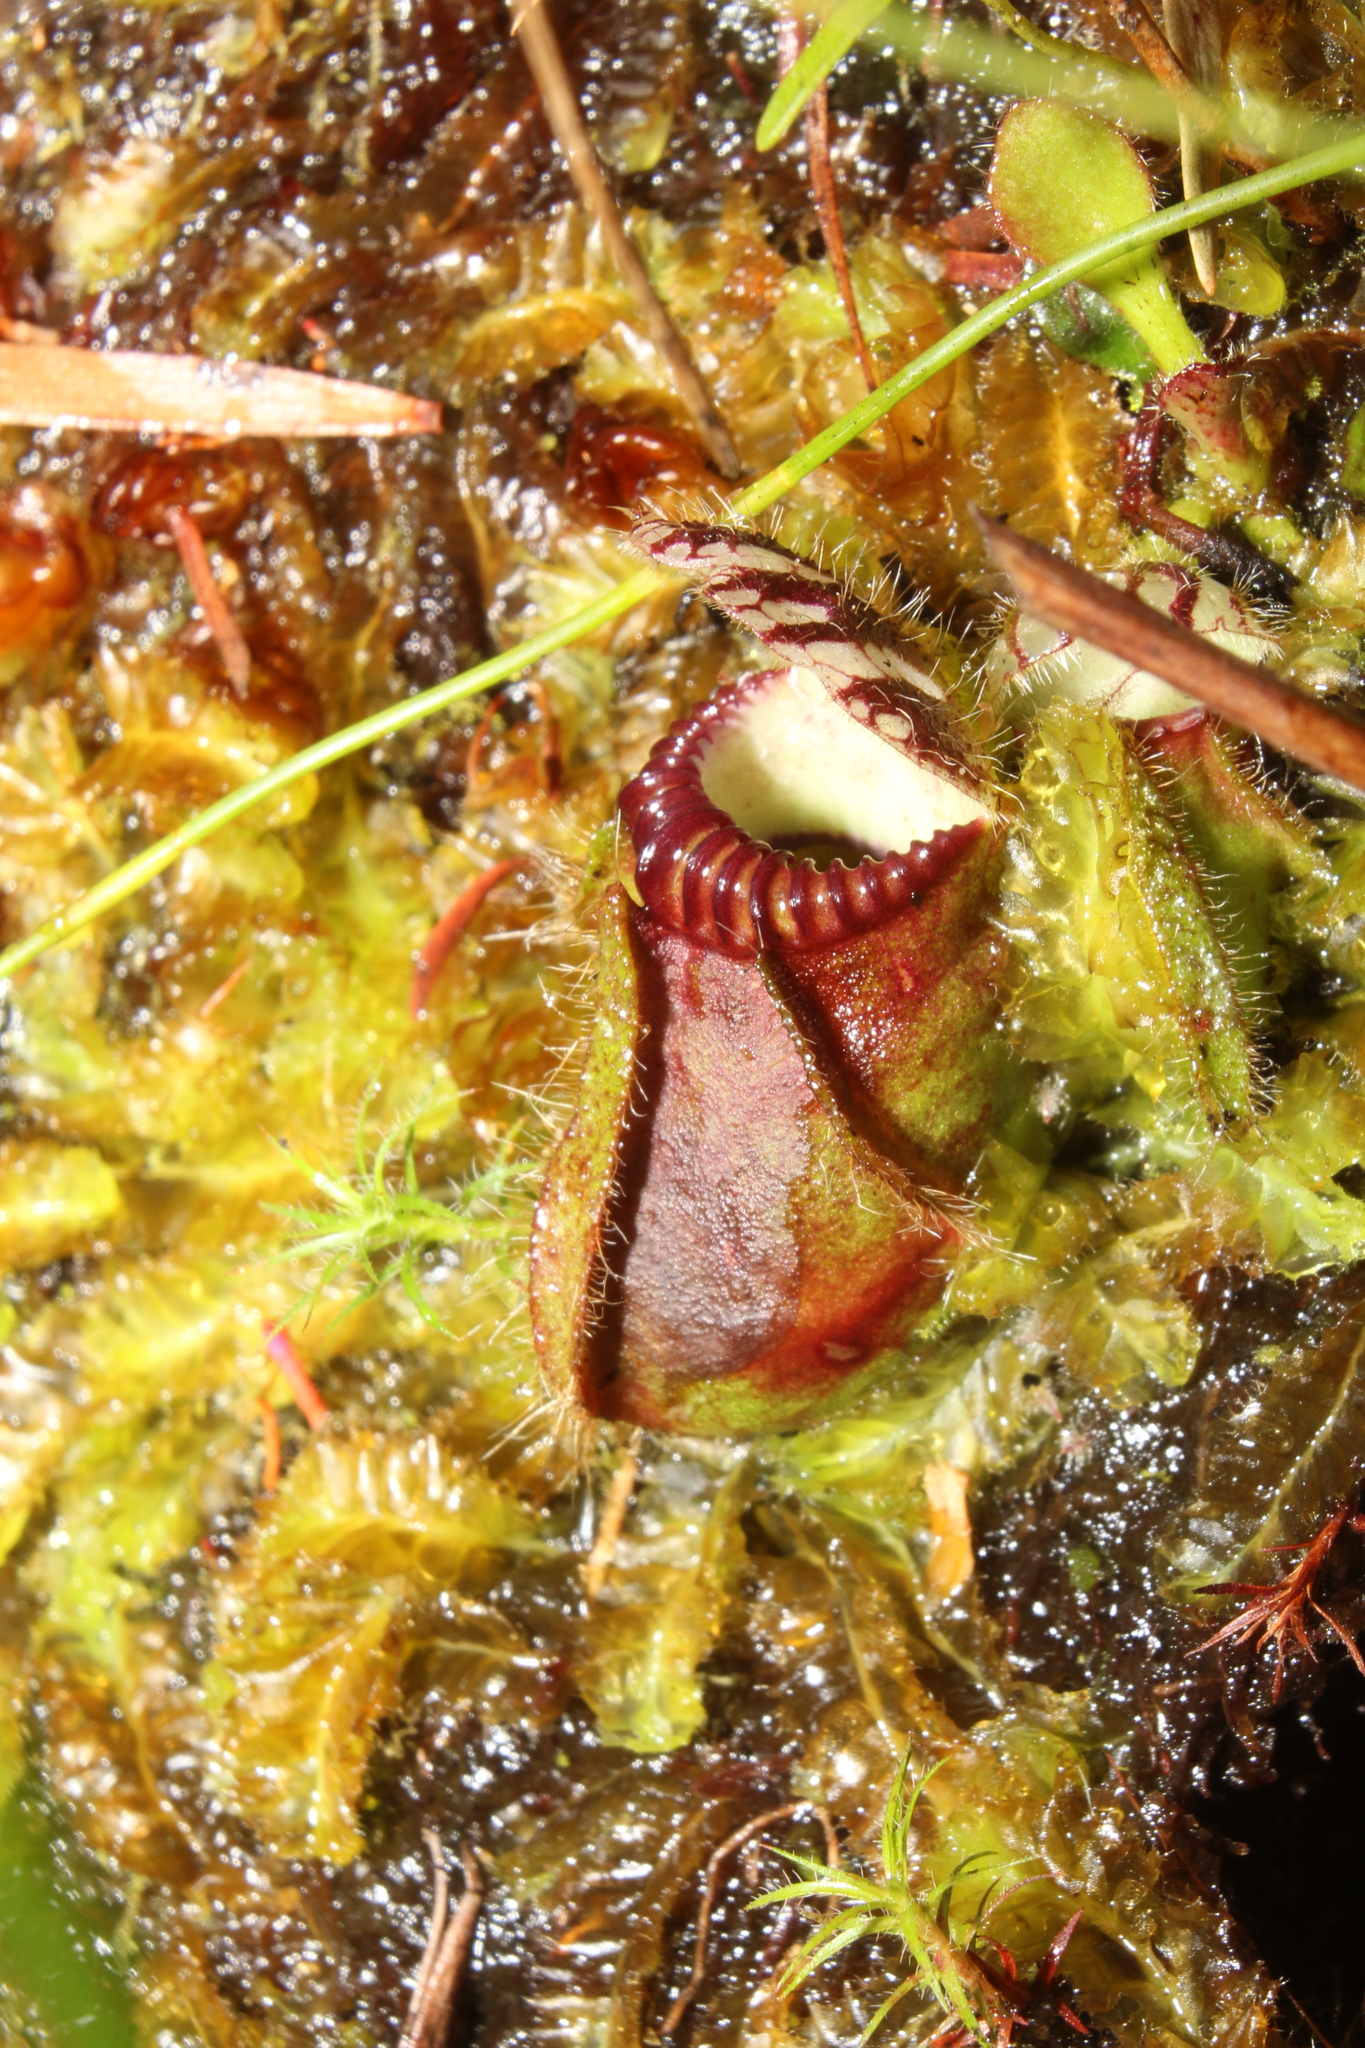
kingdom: Plantae
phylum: Tracheophyta
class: Magnoliopsida
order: Oxalidales
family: Cephalotaceae
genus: Cephalotus
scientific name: Cephalotus follicularis
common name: Australian pitcher plant
